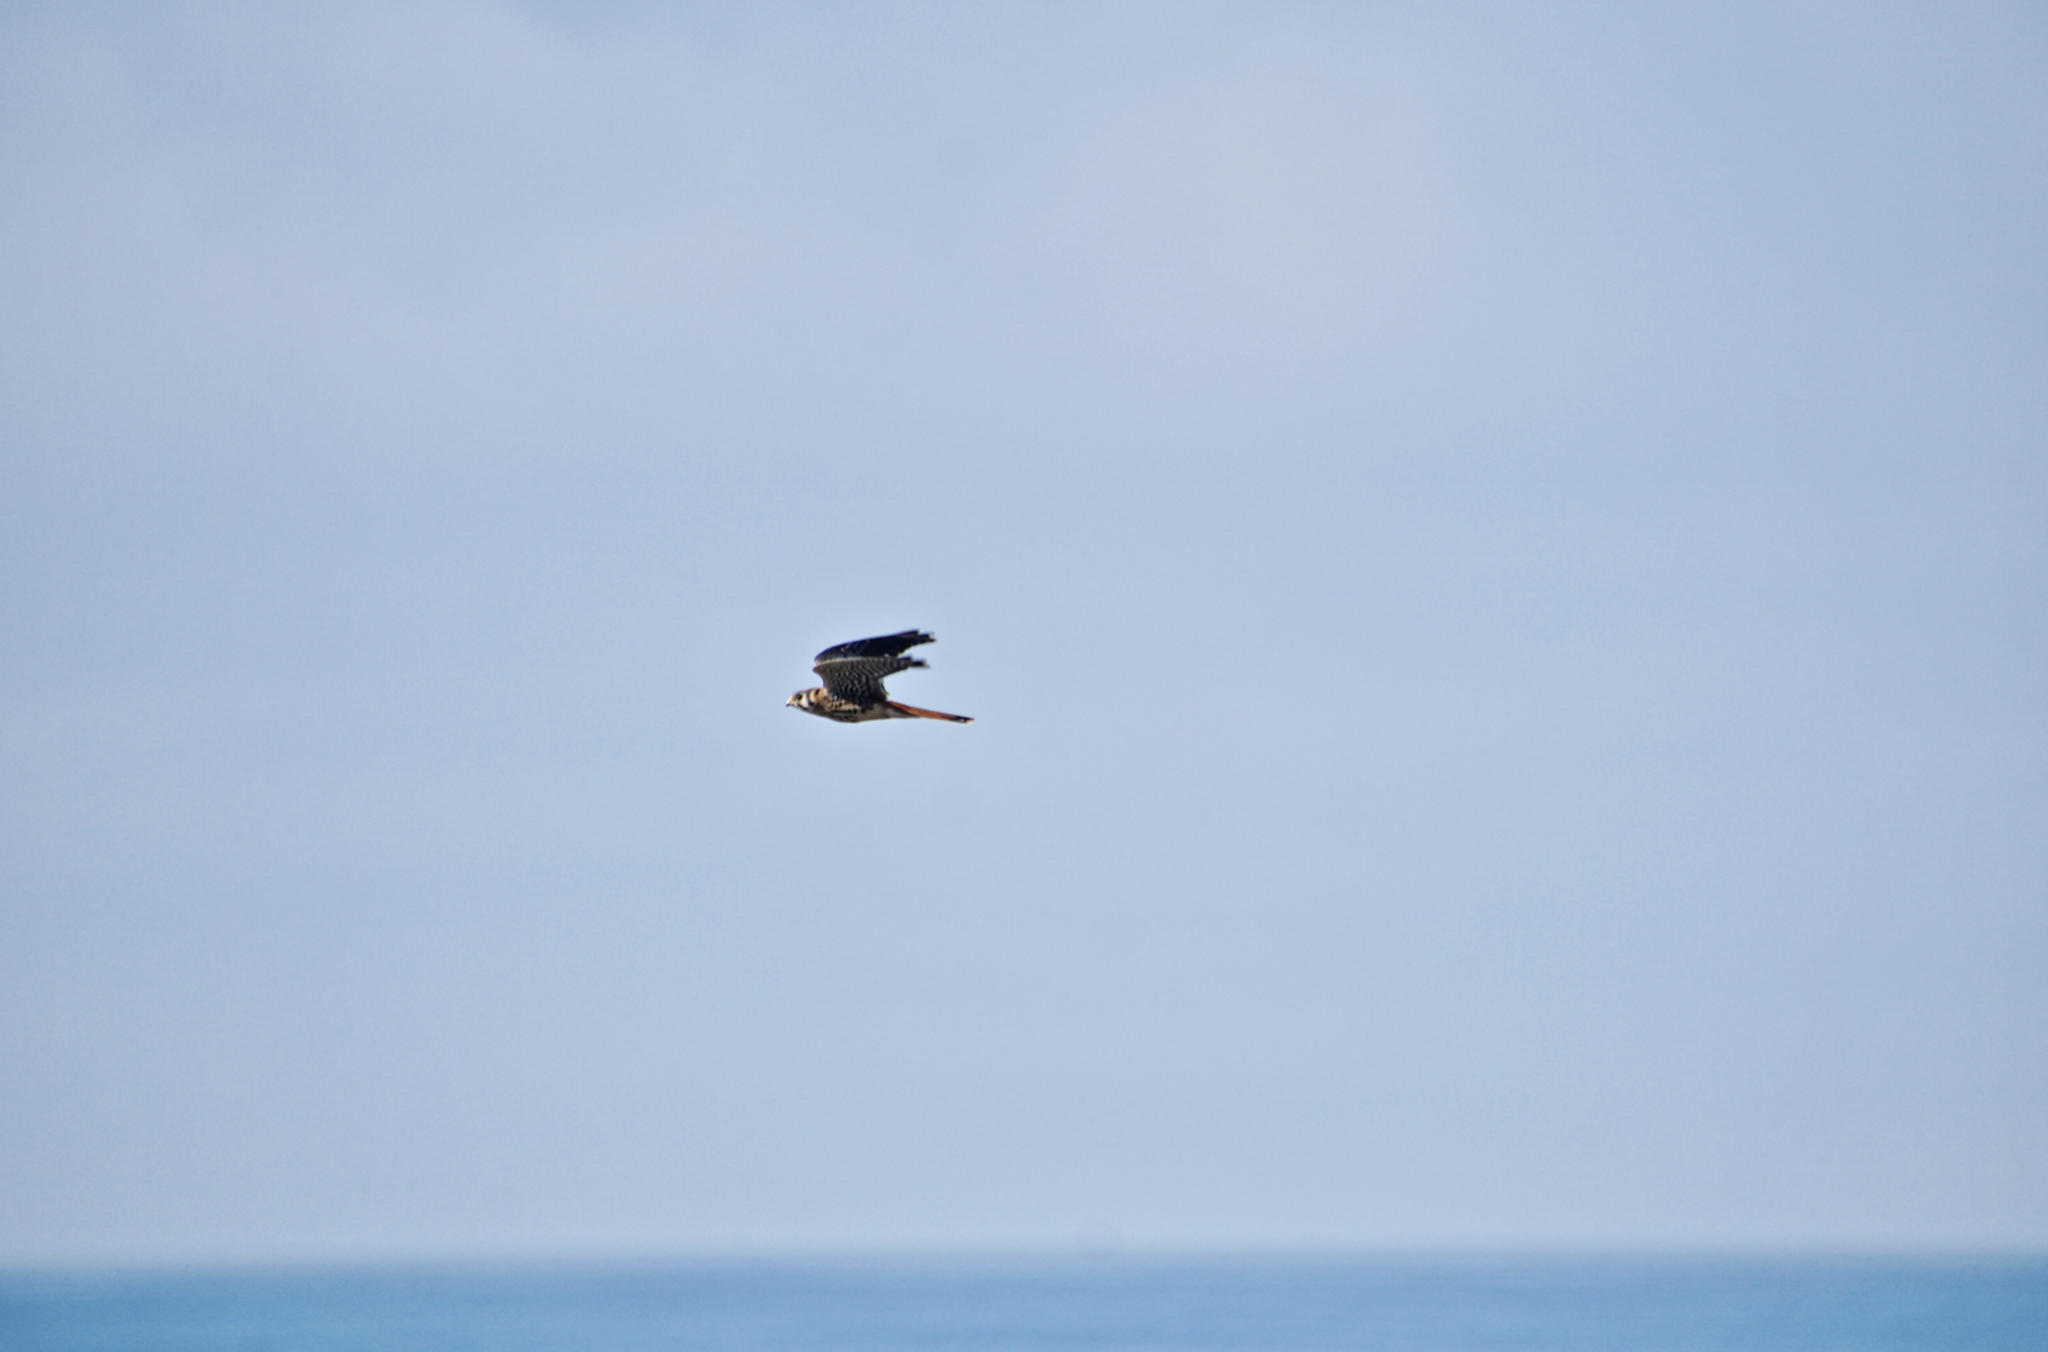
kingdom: Animalia
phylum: Chordata
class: Aves
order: Falconiformes
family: Falconidae
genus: Falco
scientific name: Falco sparverius
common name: American kestrel
